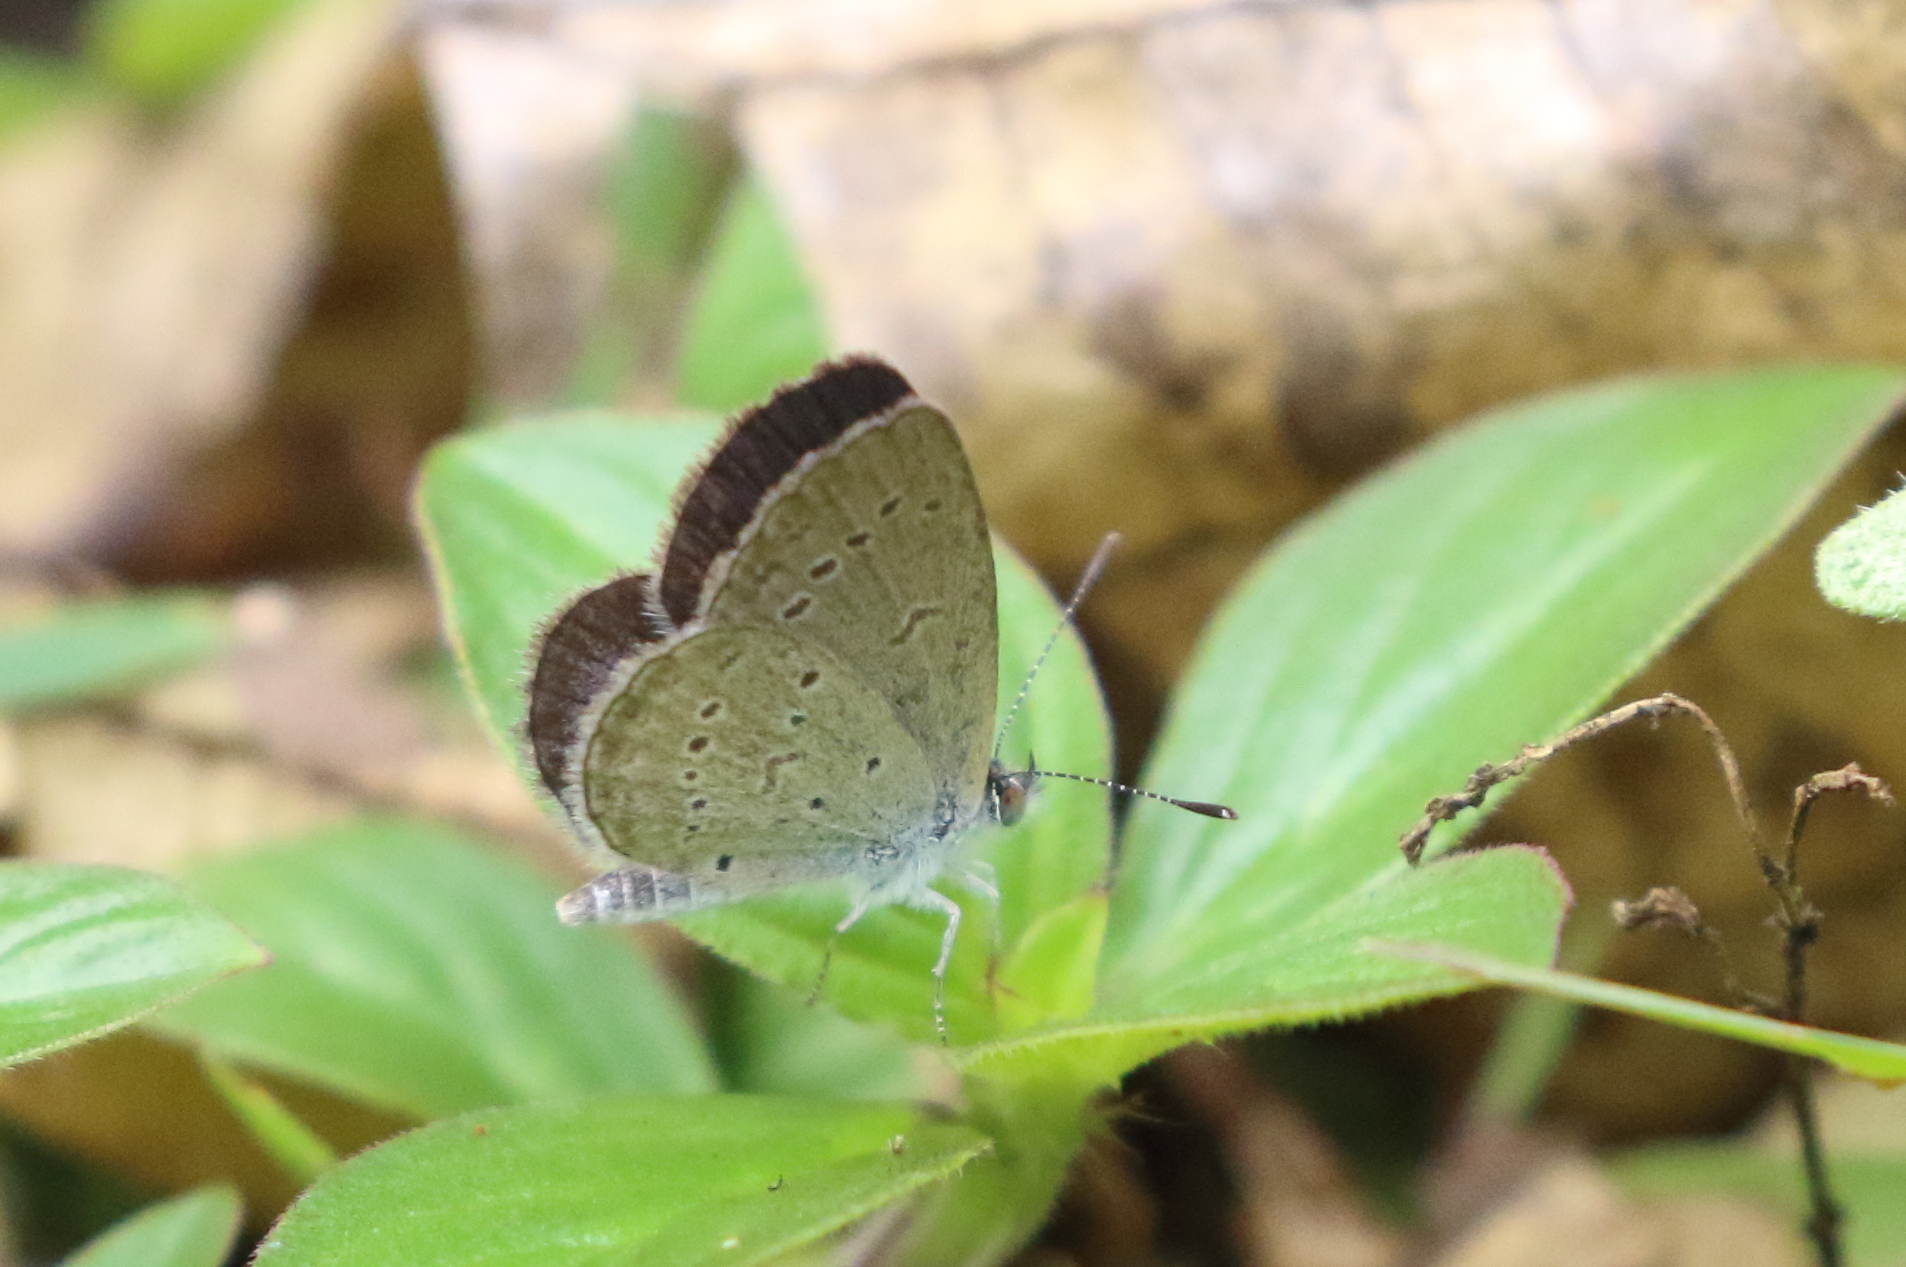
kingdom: Animalia
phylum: Arthropoda
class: Insecta
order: Lepidoptera
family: Lycaenidae
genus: Zizina
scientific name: Zizina otis
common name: Lesser grass blue
